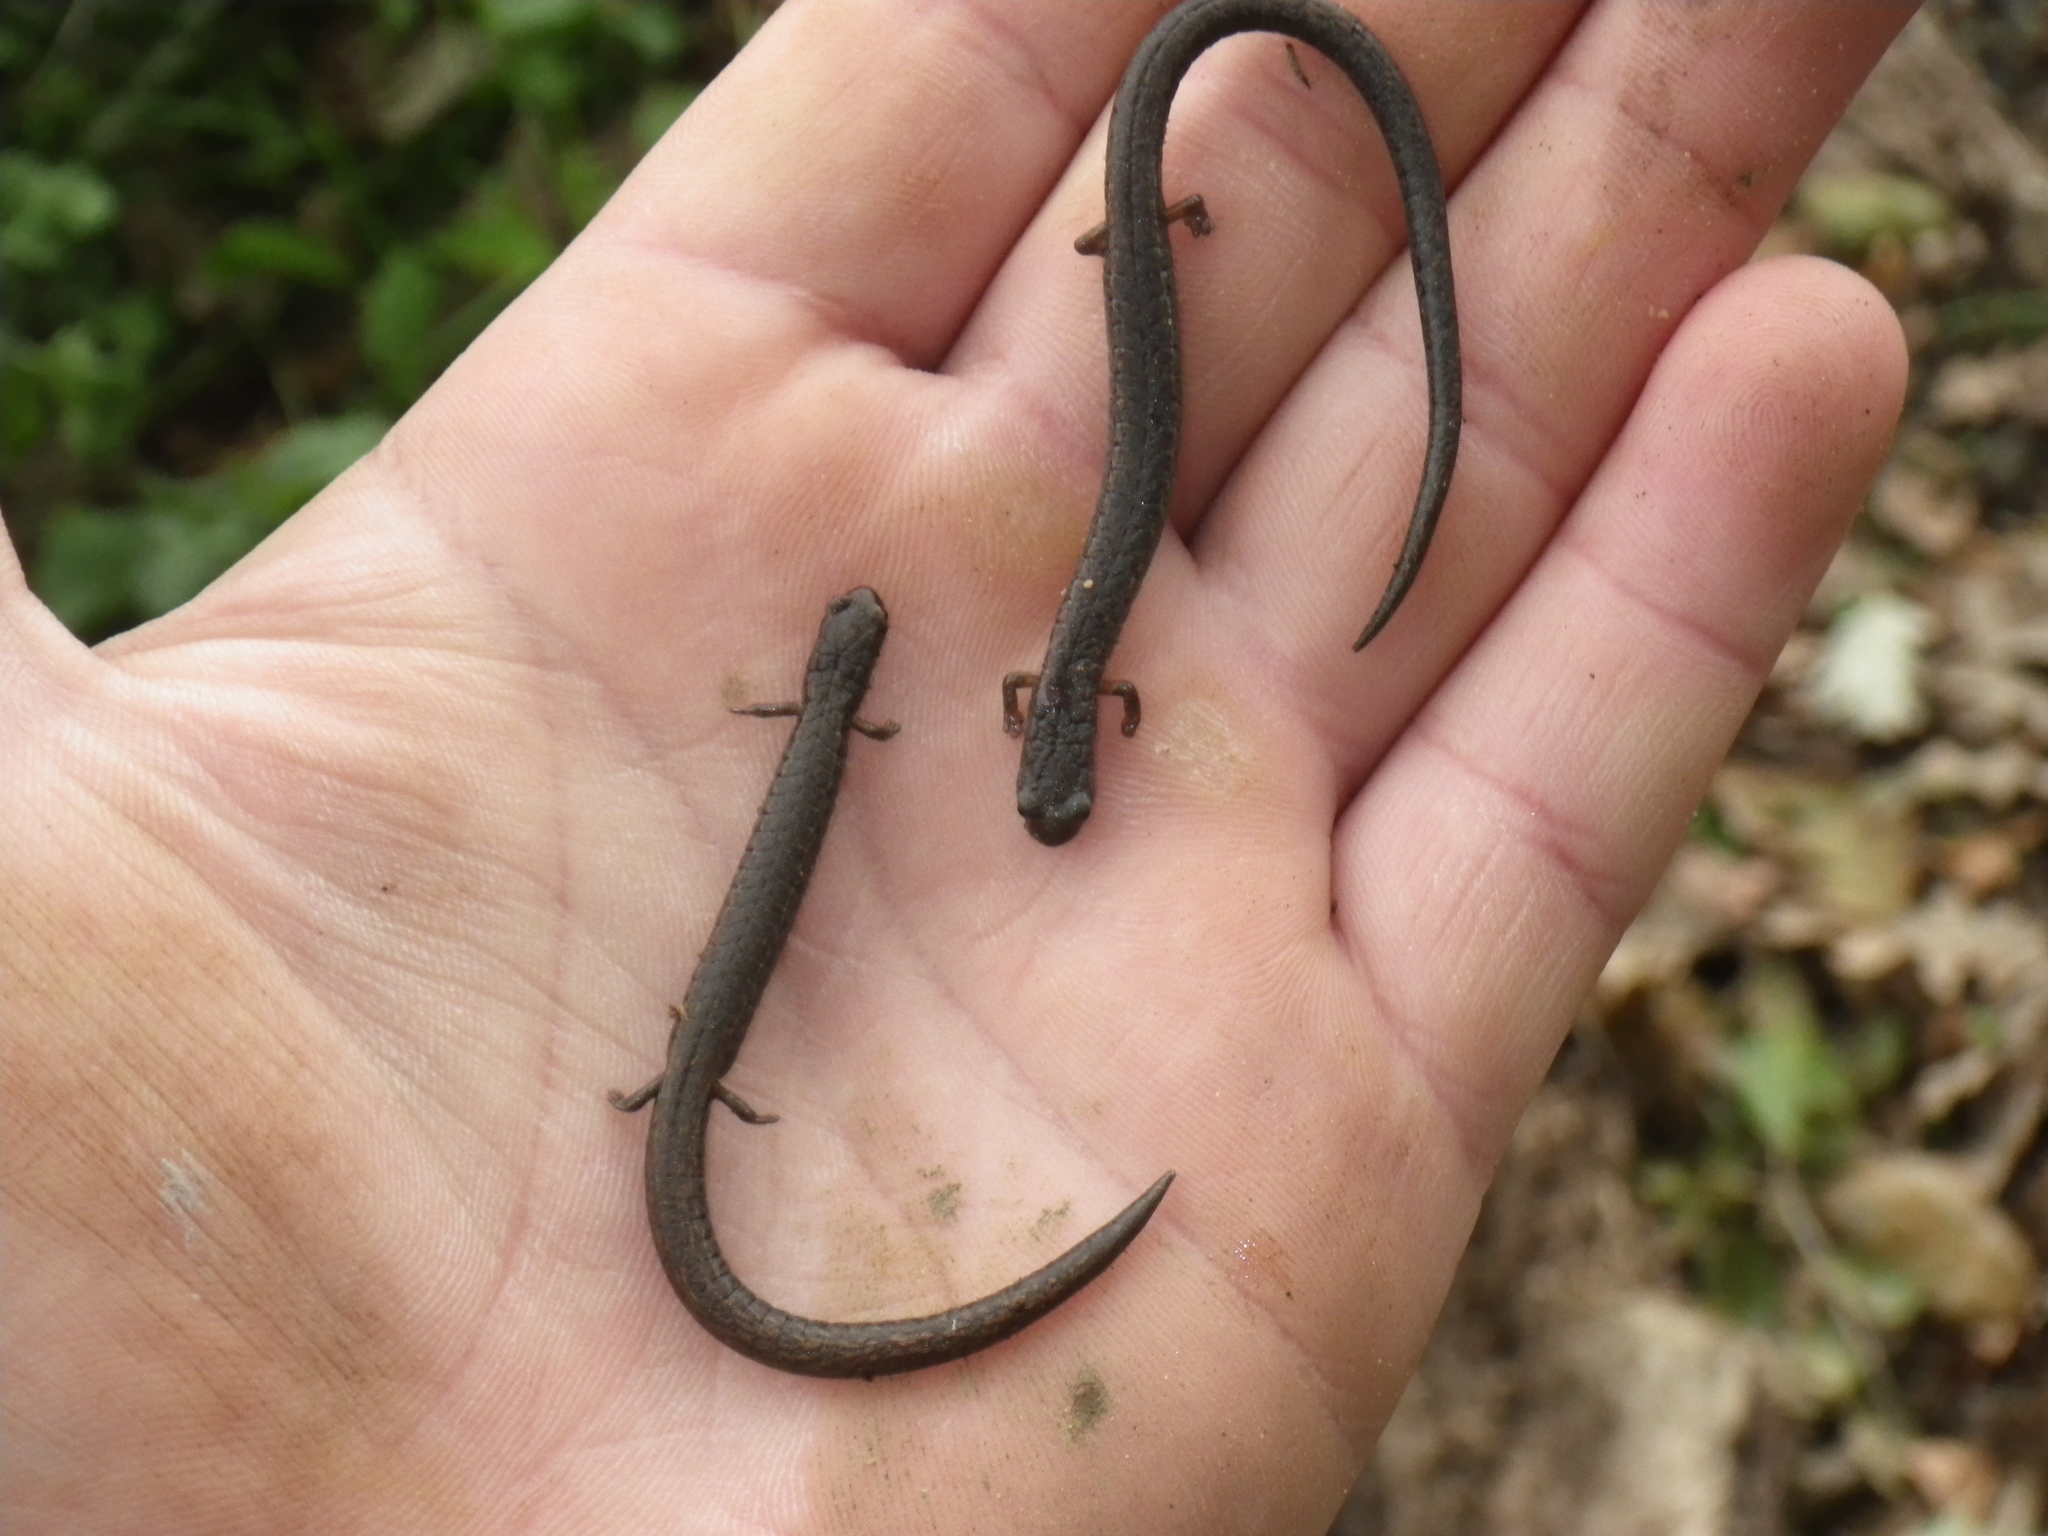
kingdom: Animalia
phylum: Chordata
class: Amphibia
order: Caudata
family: Plethodontidae
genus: Batrachoseps
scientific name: Batrachoseps attenuatus
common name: California slender salamander
